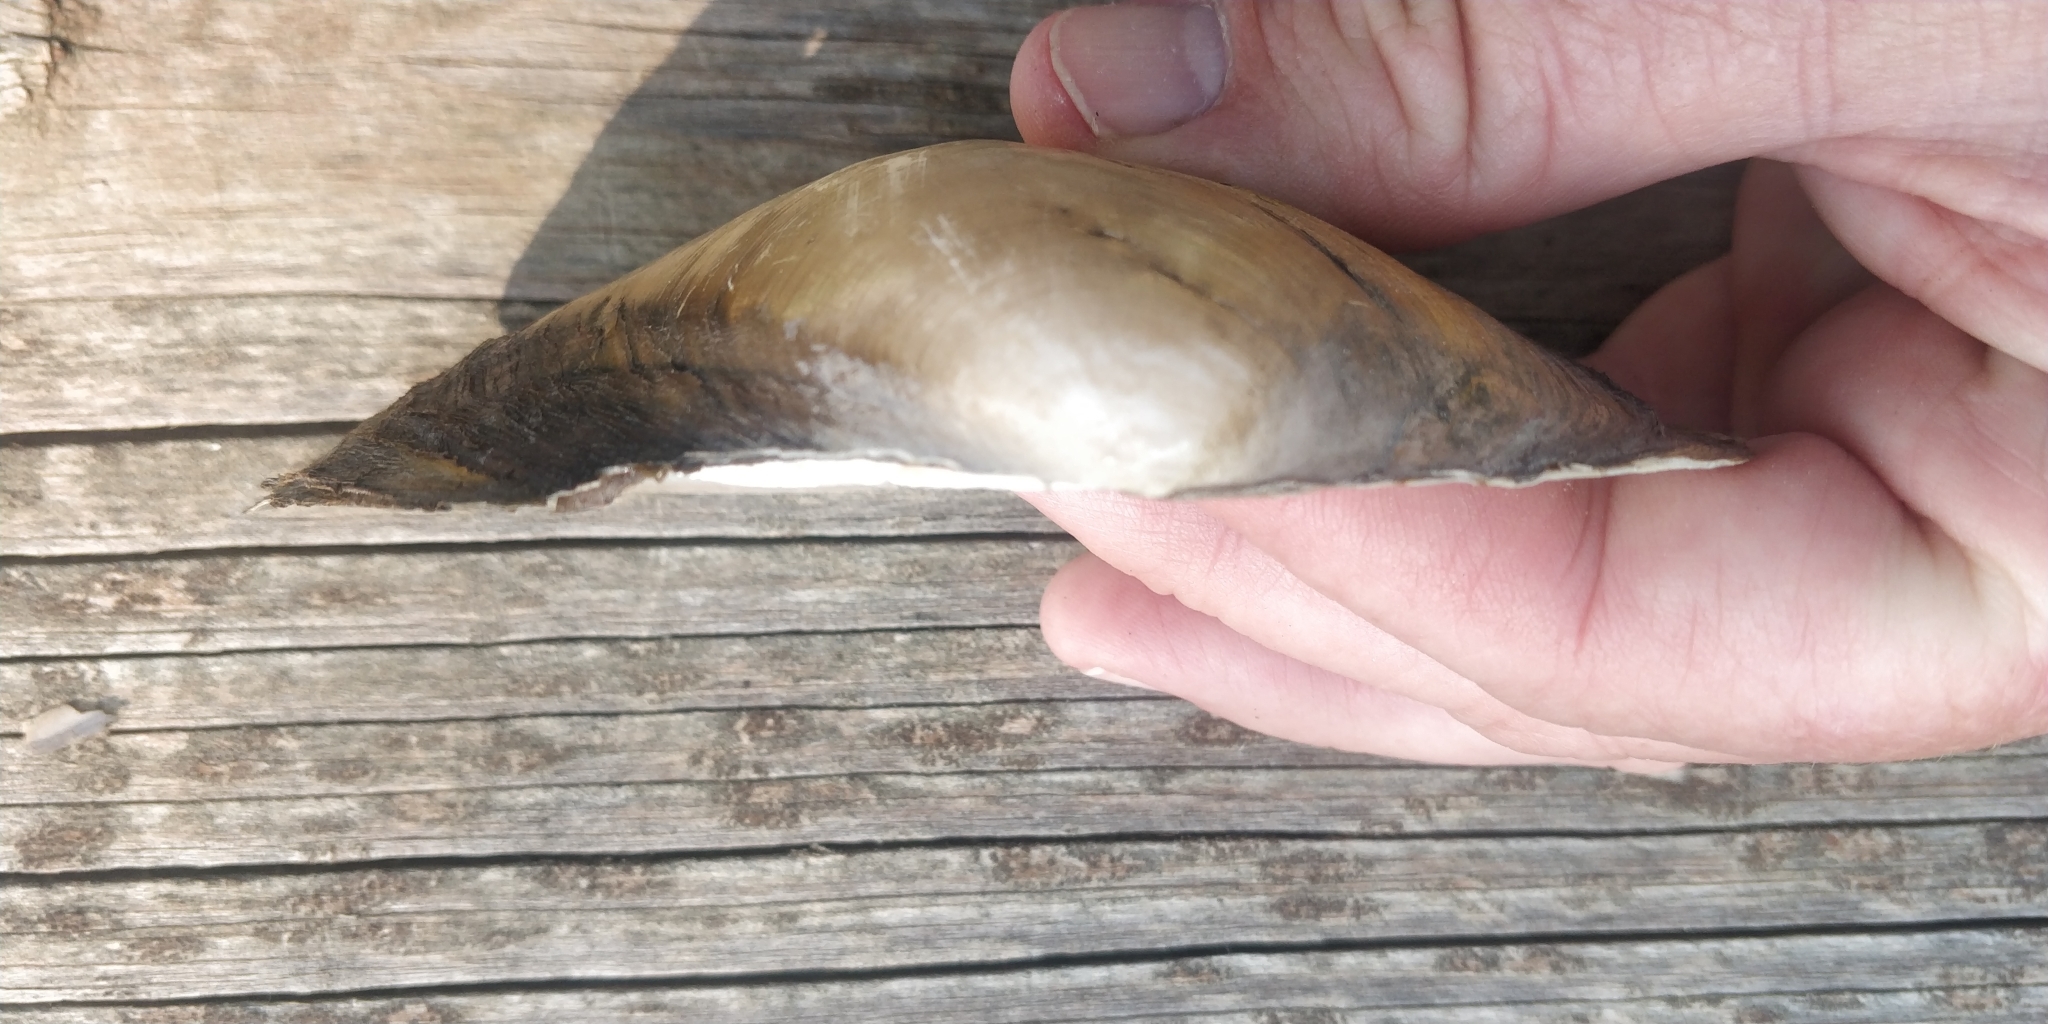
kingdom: Animalia
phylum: Mollusca
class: Bivalvia
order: Unionida
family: Unionidae
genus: Pyganodon
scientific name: Pyganodon grandis
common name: Giant floater
